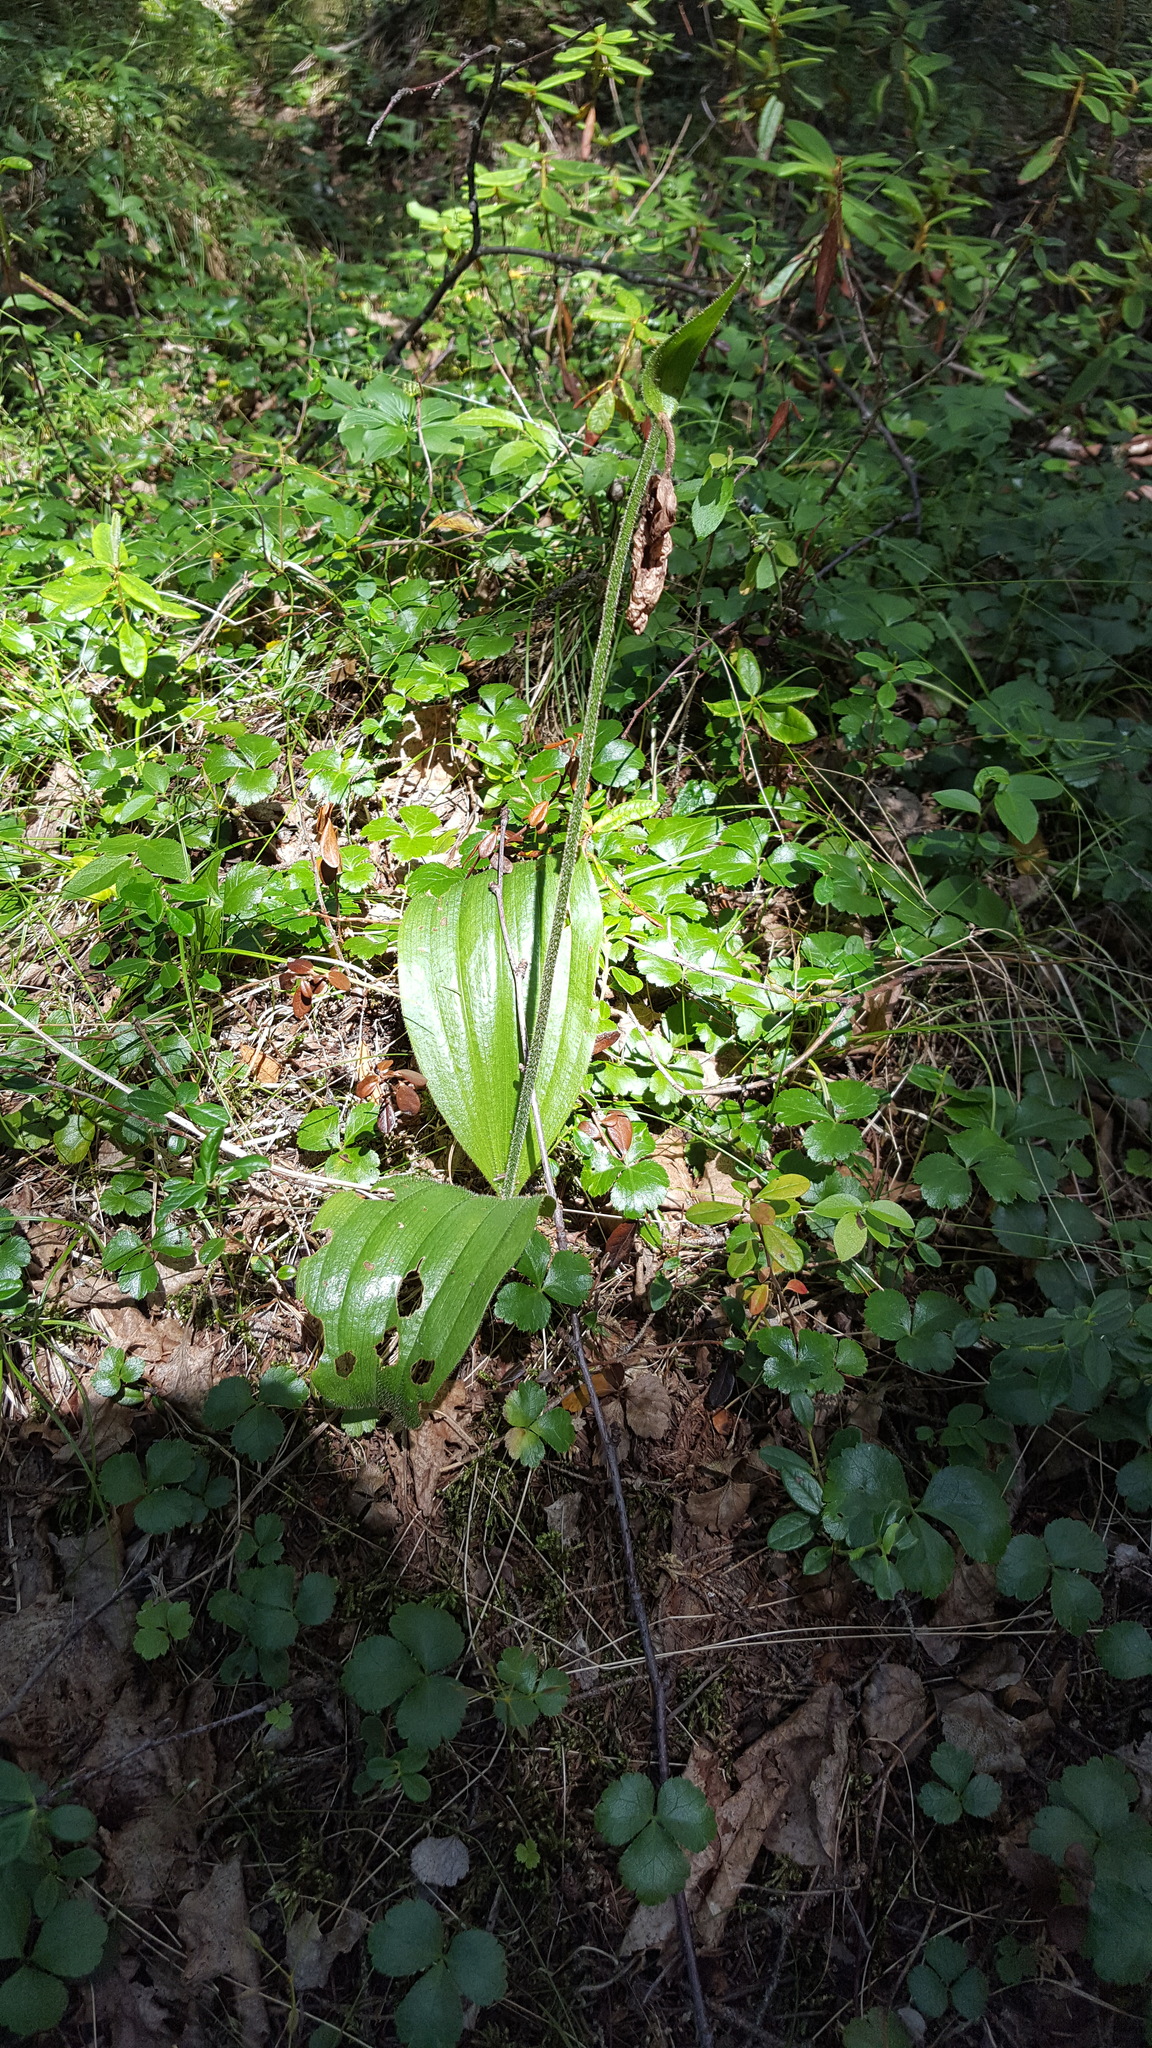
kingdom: Plantae
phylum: Tracheophyta
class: Liliopsida
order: Asparagales
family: Orchidaceae
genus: Cypripedium
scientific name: Cypripedium acaule
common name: Pink lady's-slipper
